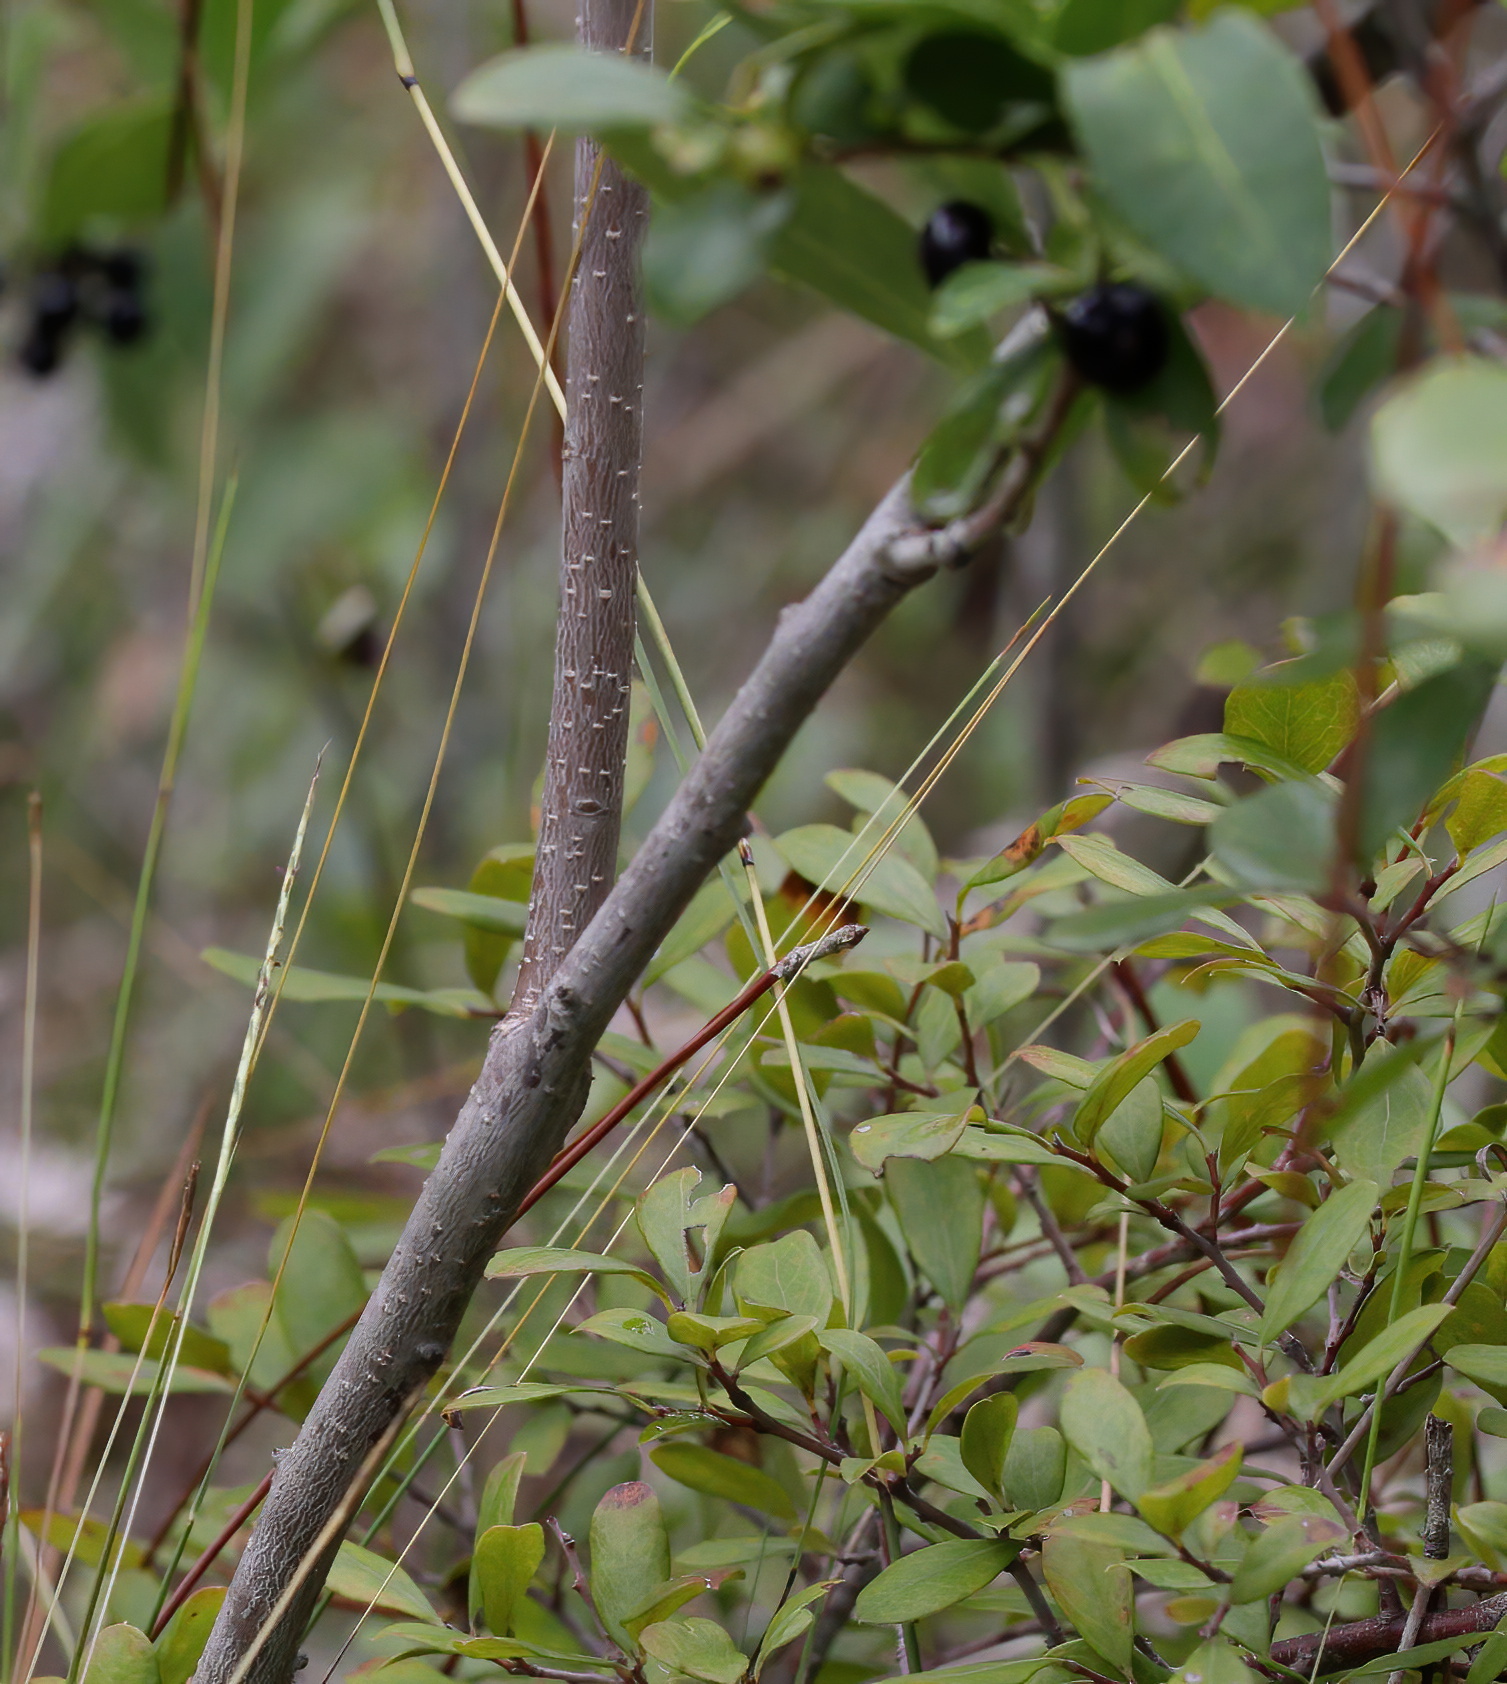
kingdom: Plantae
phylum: Tracheophyta
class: Magnoliopsida
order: Aquifoliales
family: Aquifoliaceae
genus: Ilex
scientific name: Ilex coriacea
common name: Sweet gallberry
